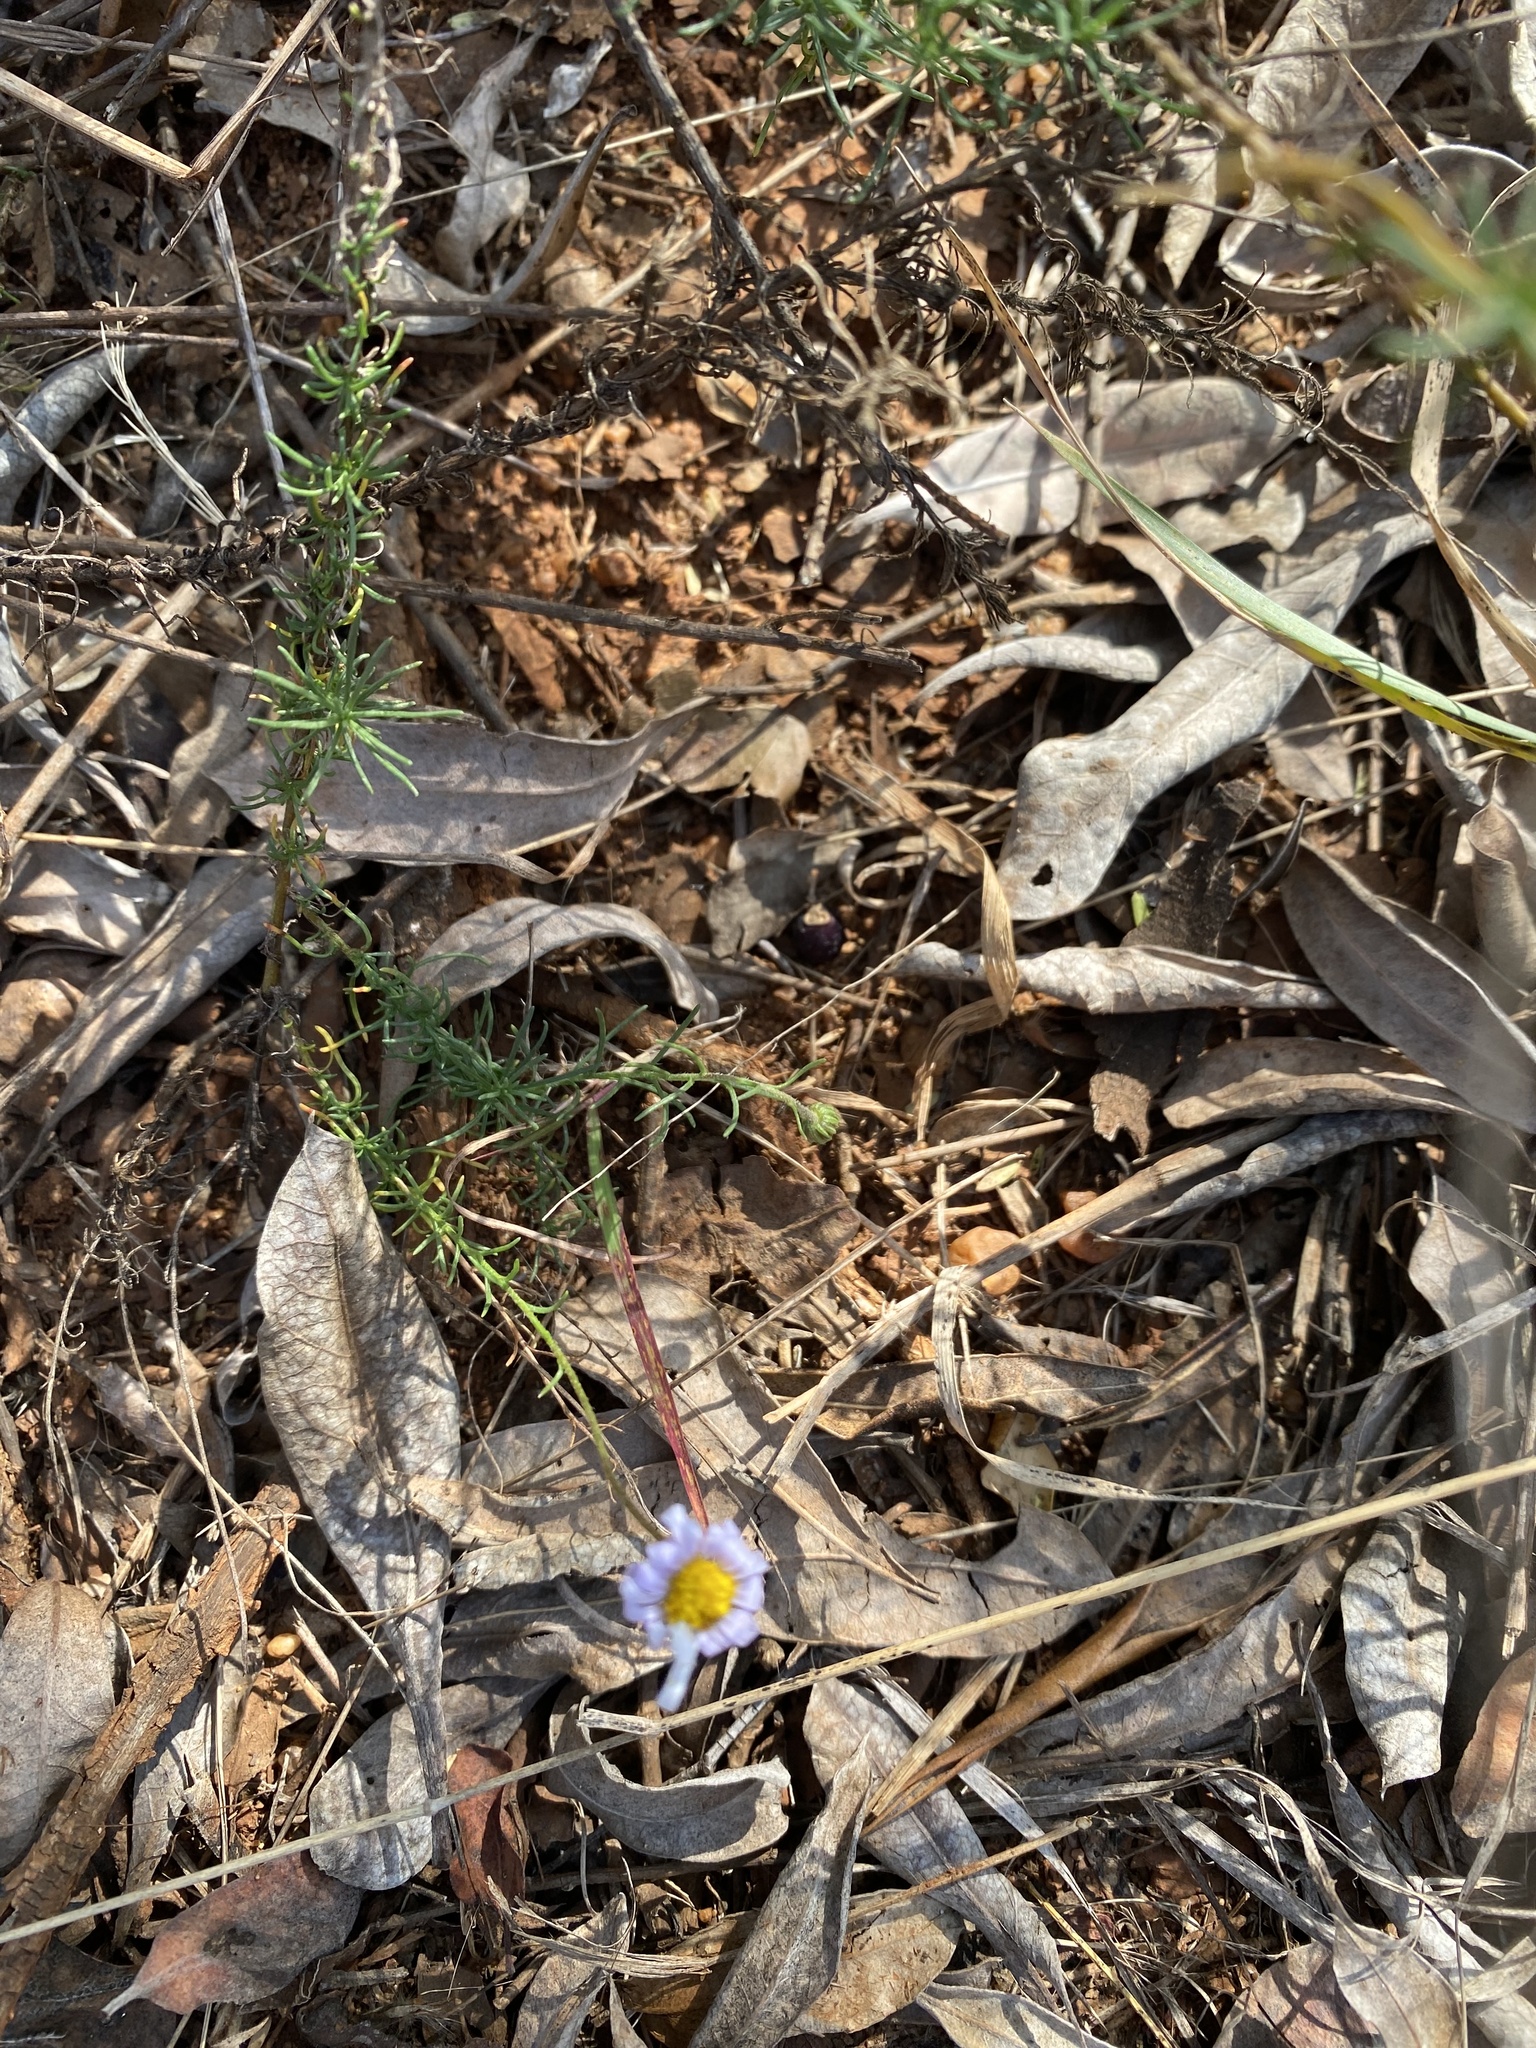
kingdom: Plantae
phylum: Tracheophyta
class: Magnoliopsida
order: Asterales
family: Asteraceae
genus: Athrixia
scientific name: Athrixia elata
